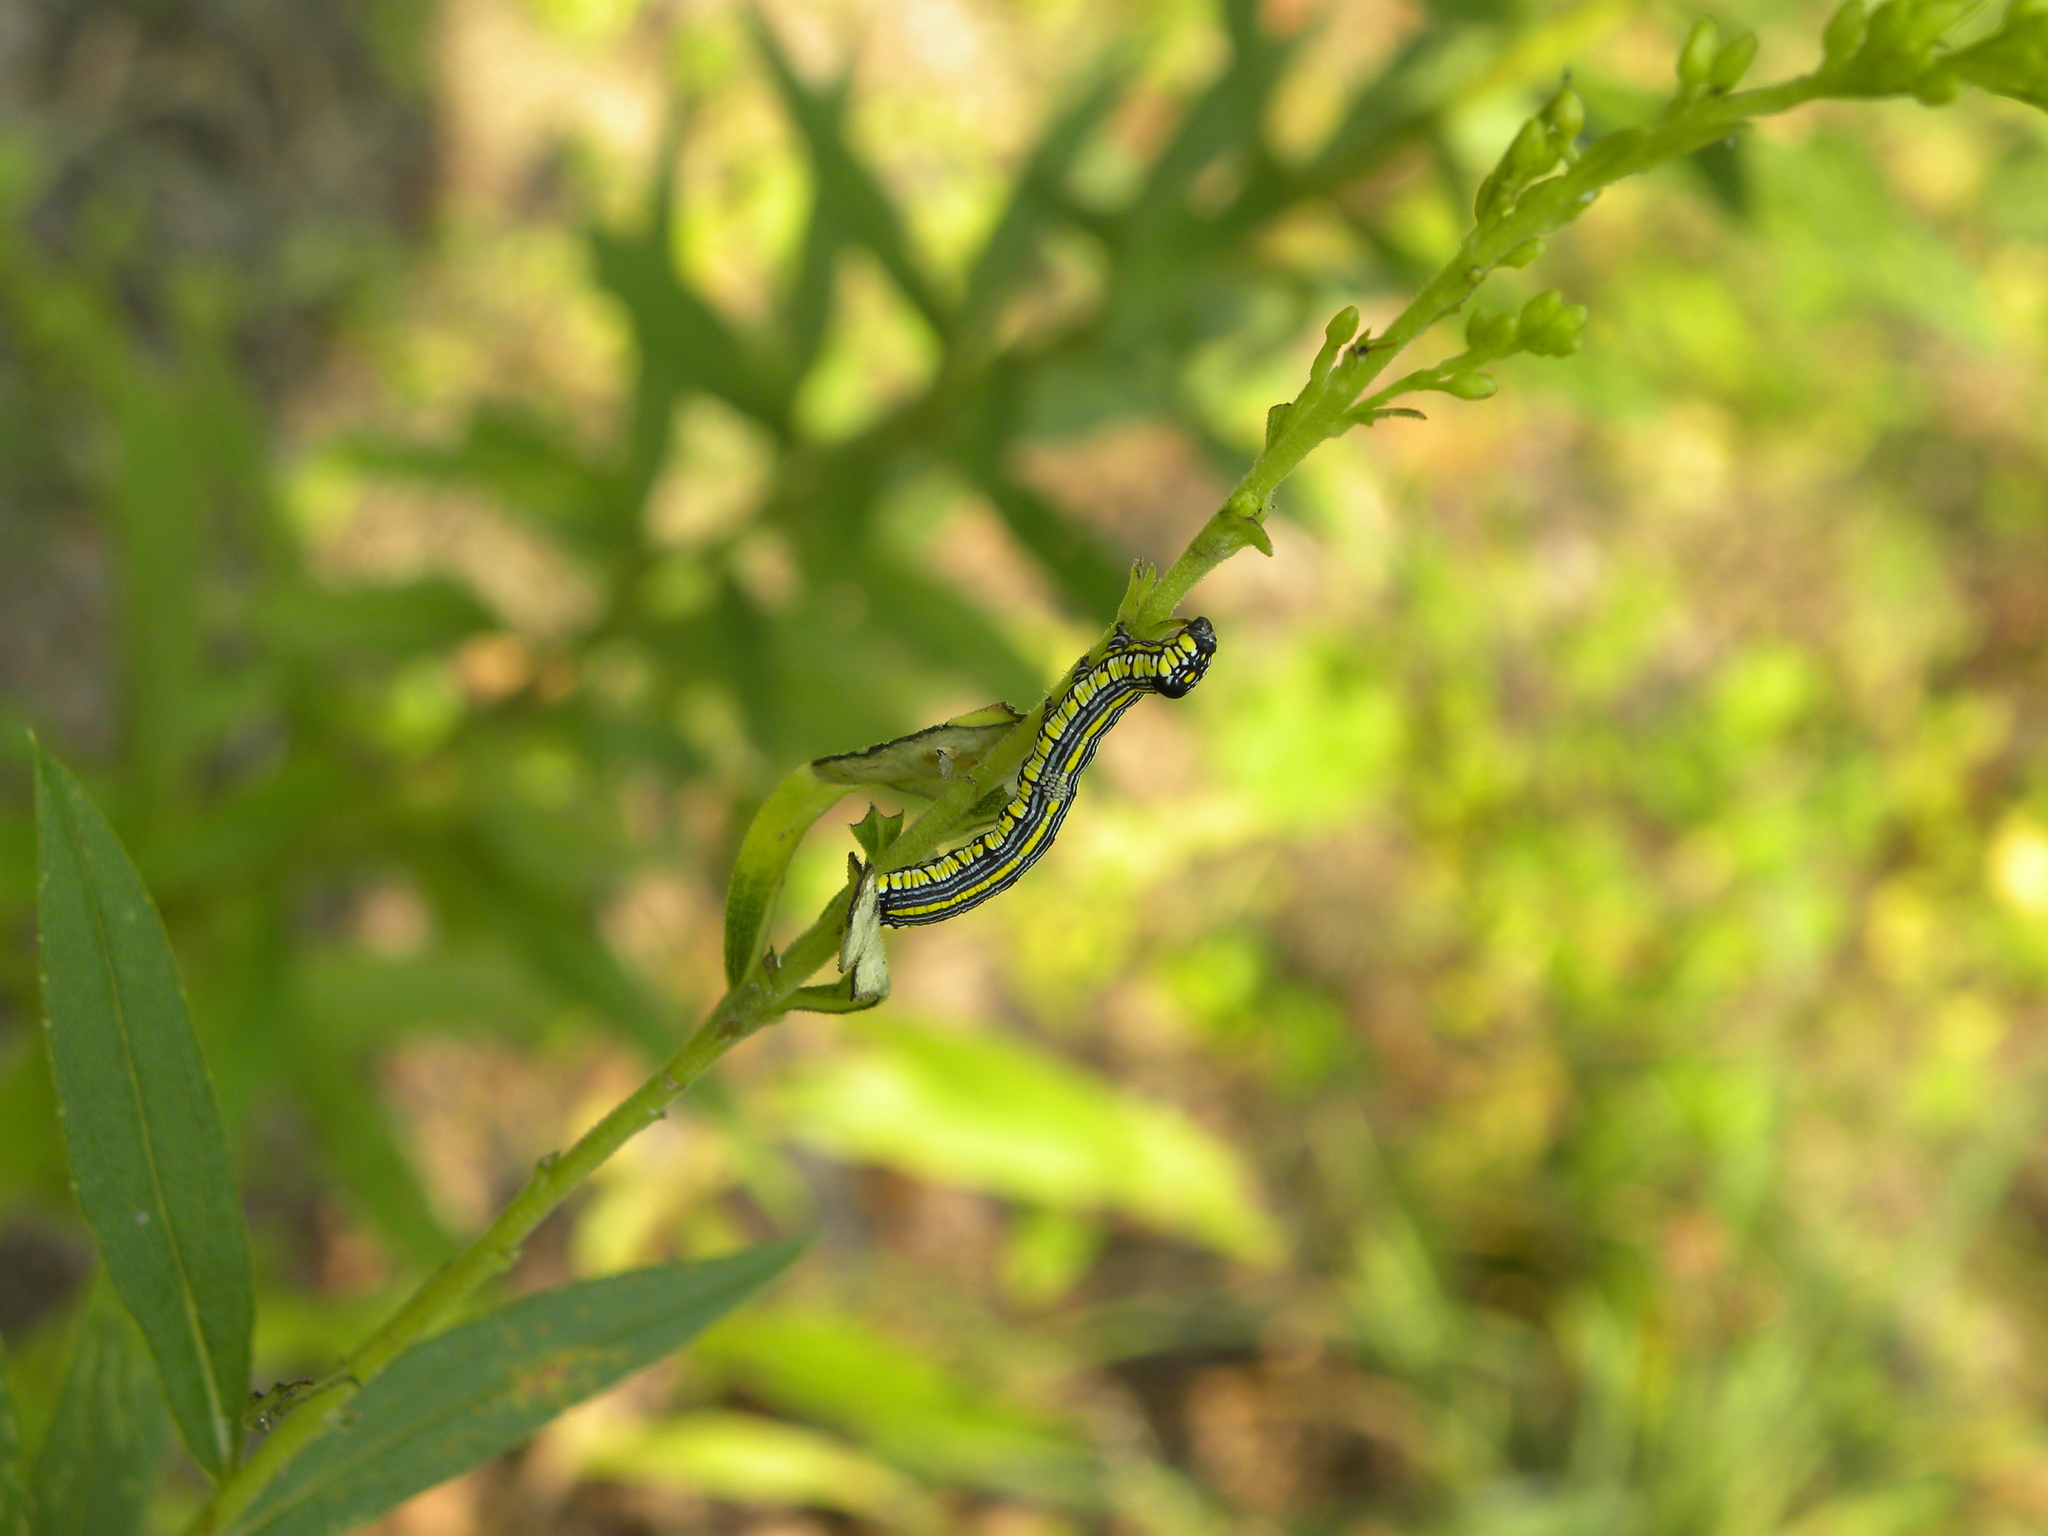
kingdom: Animalia
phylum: Arthropoda
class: Insecta
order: Lepidoptera
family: Noctuidae
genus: Cucullia
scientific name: Cucullia convexipennis
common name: Brown-hooded owlet
